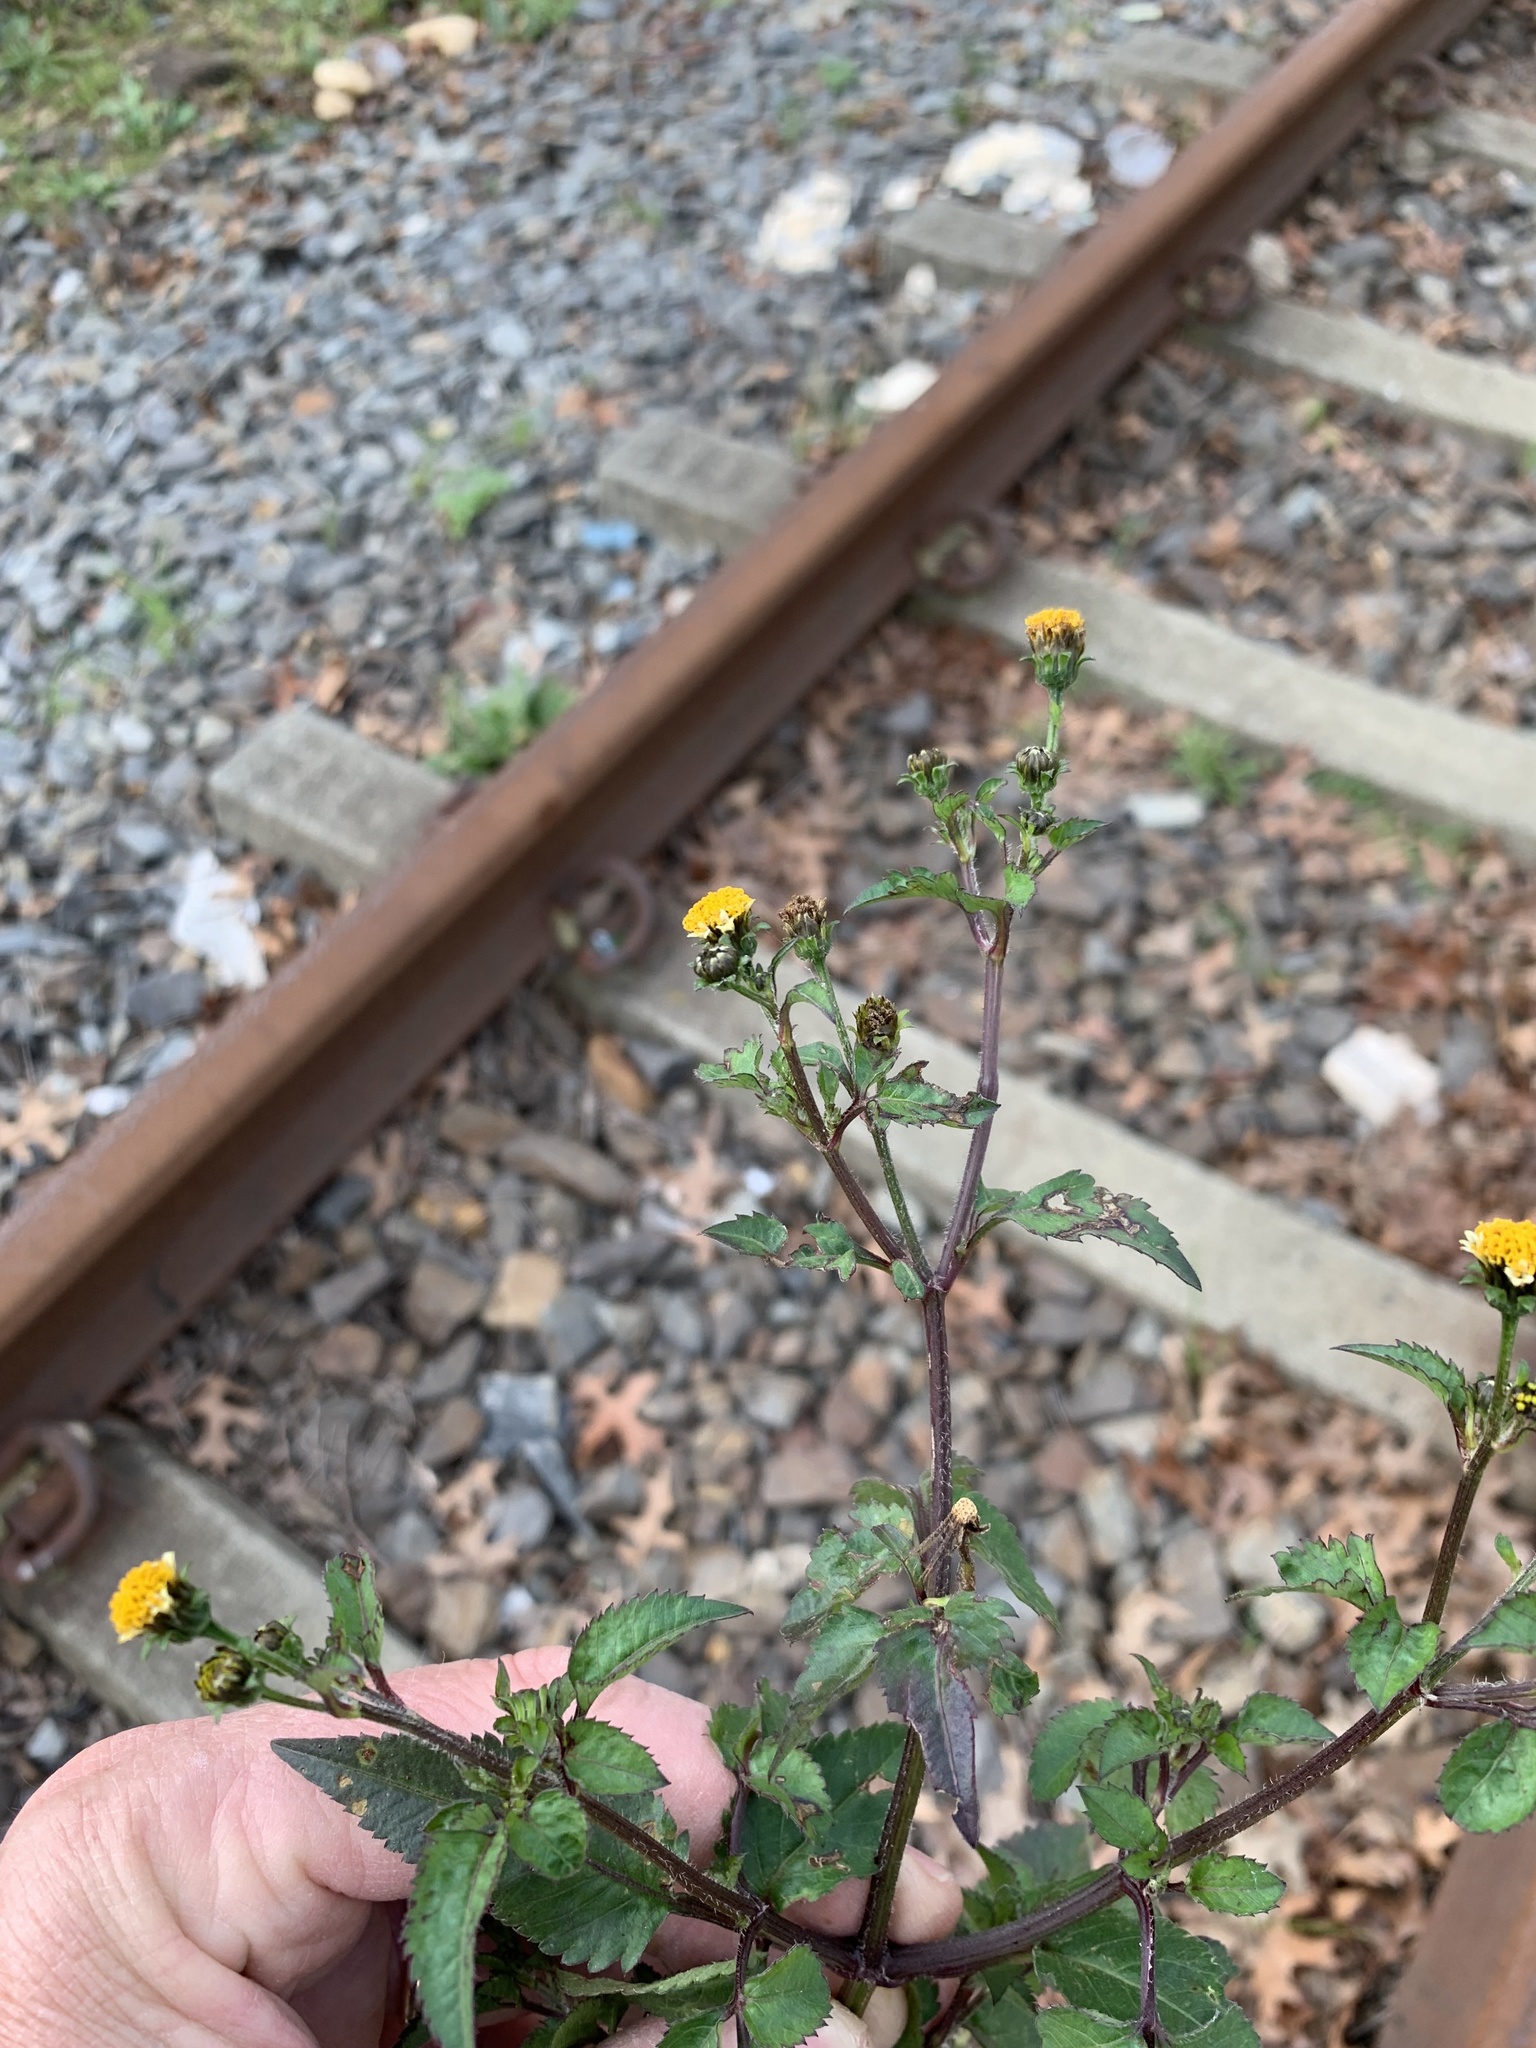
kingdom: Plantae
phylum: Tracheophyta
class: Magnoliopsida
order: Asterales
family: Asteraceae
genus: Bidens
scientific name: Bidens pilosa
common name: Black-jack
